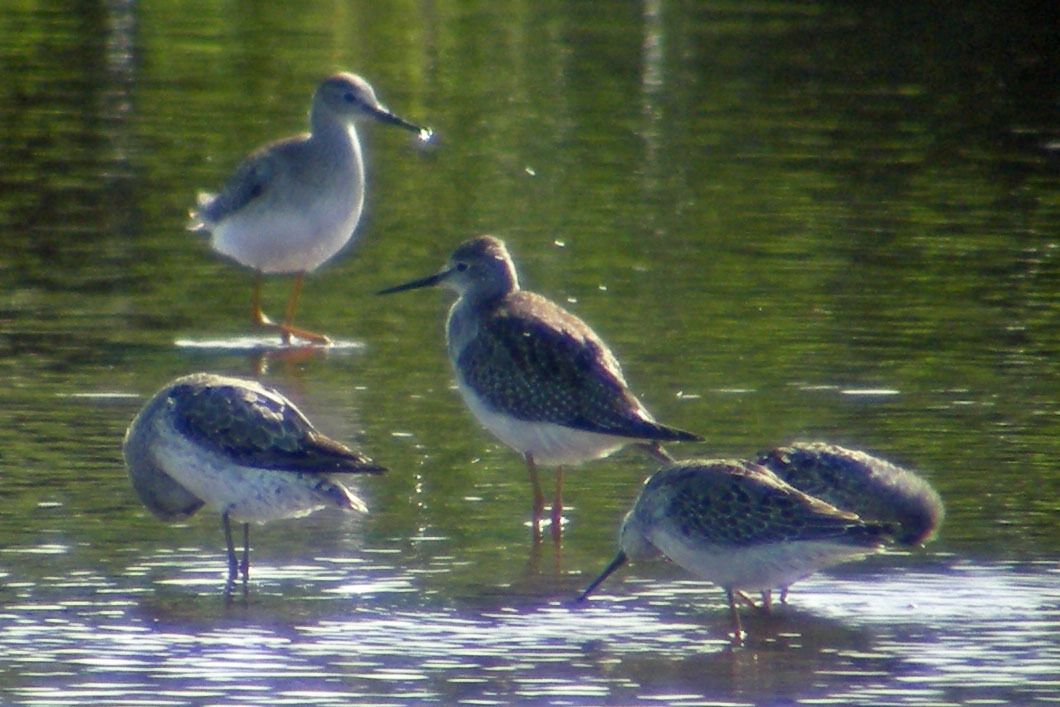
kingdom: Animalia
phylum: Chordata
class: Aves
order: Charadriiformes
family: Scolopacidae
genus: Tringa
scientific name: Tringa flavipes
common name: Lesser yellowlegs
